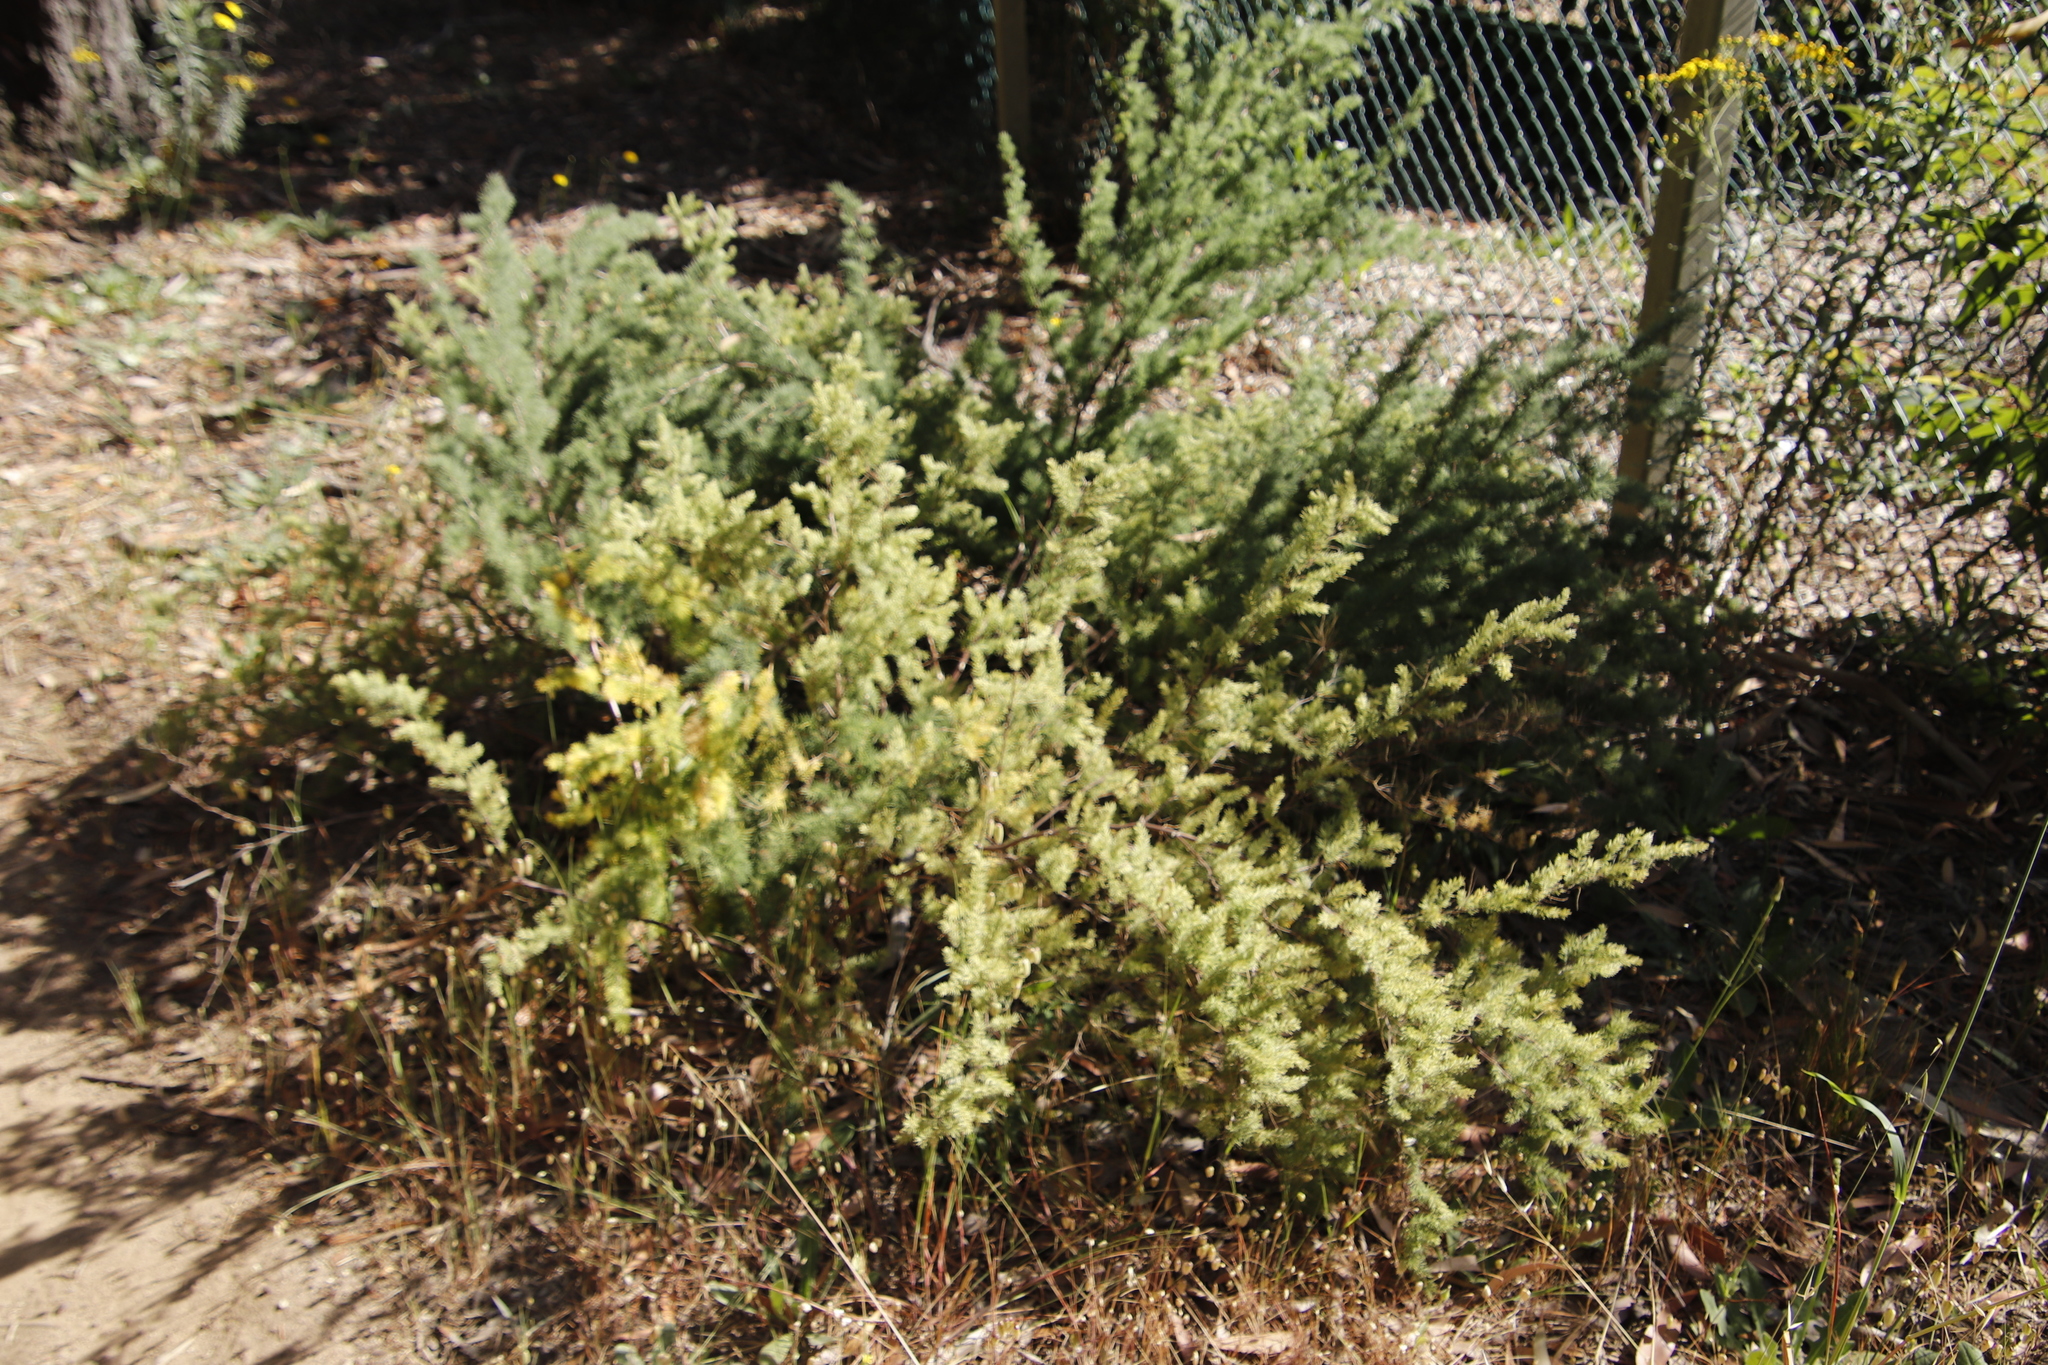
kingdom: Plantae
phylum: Tracheophyta
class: Liliopsida
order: Asparagales
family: Asparagaceae
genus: Asparagus
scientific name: Asparagus rubicundus
